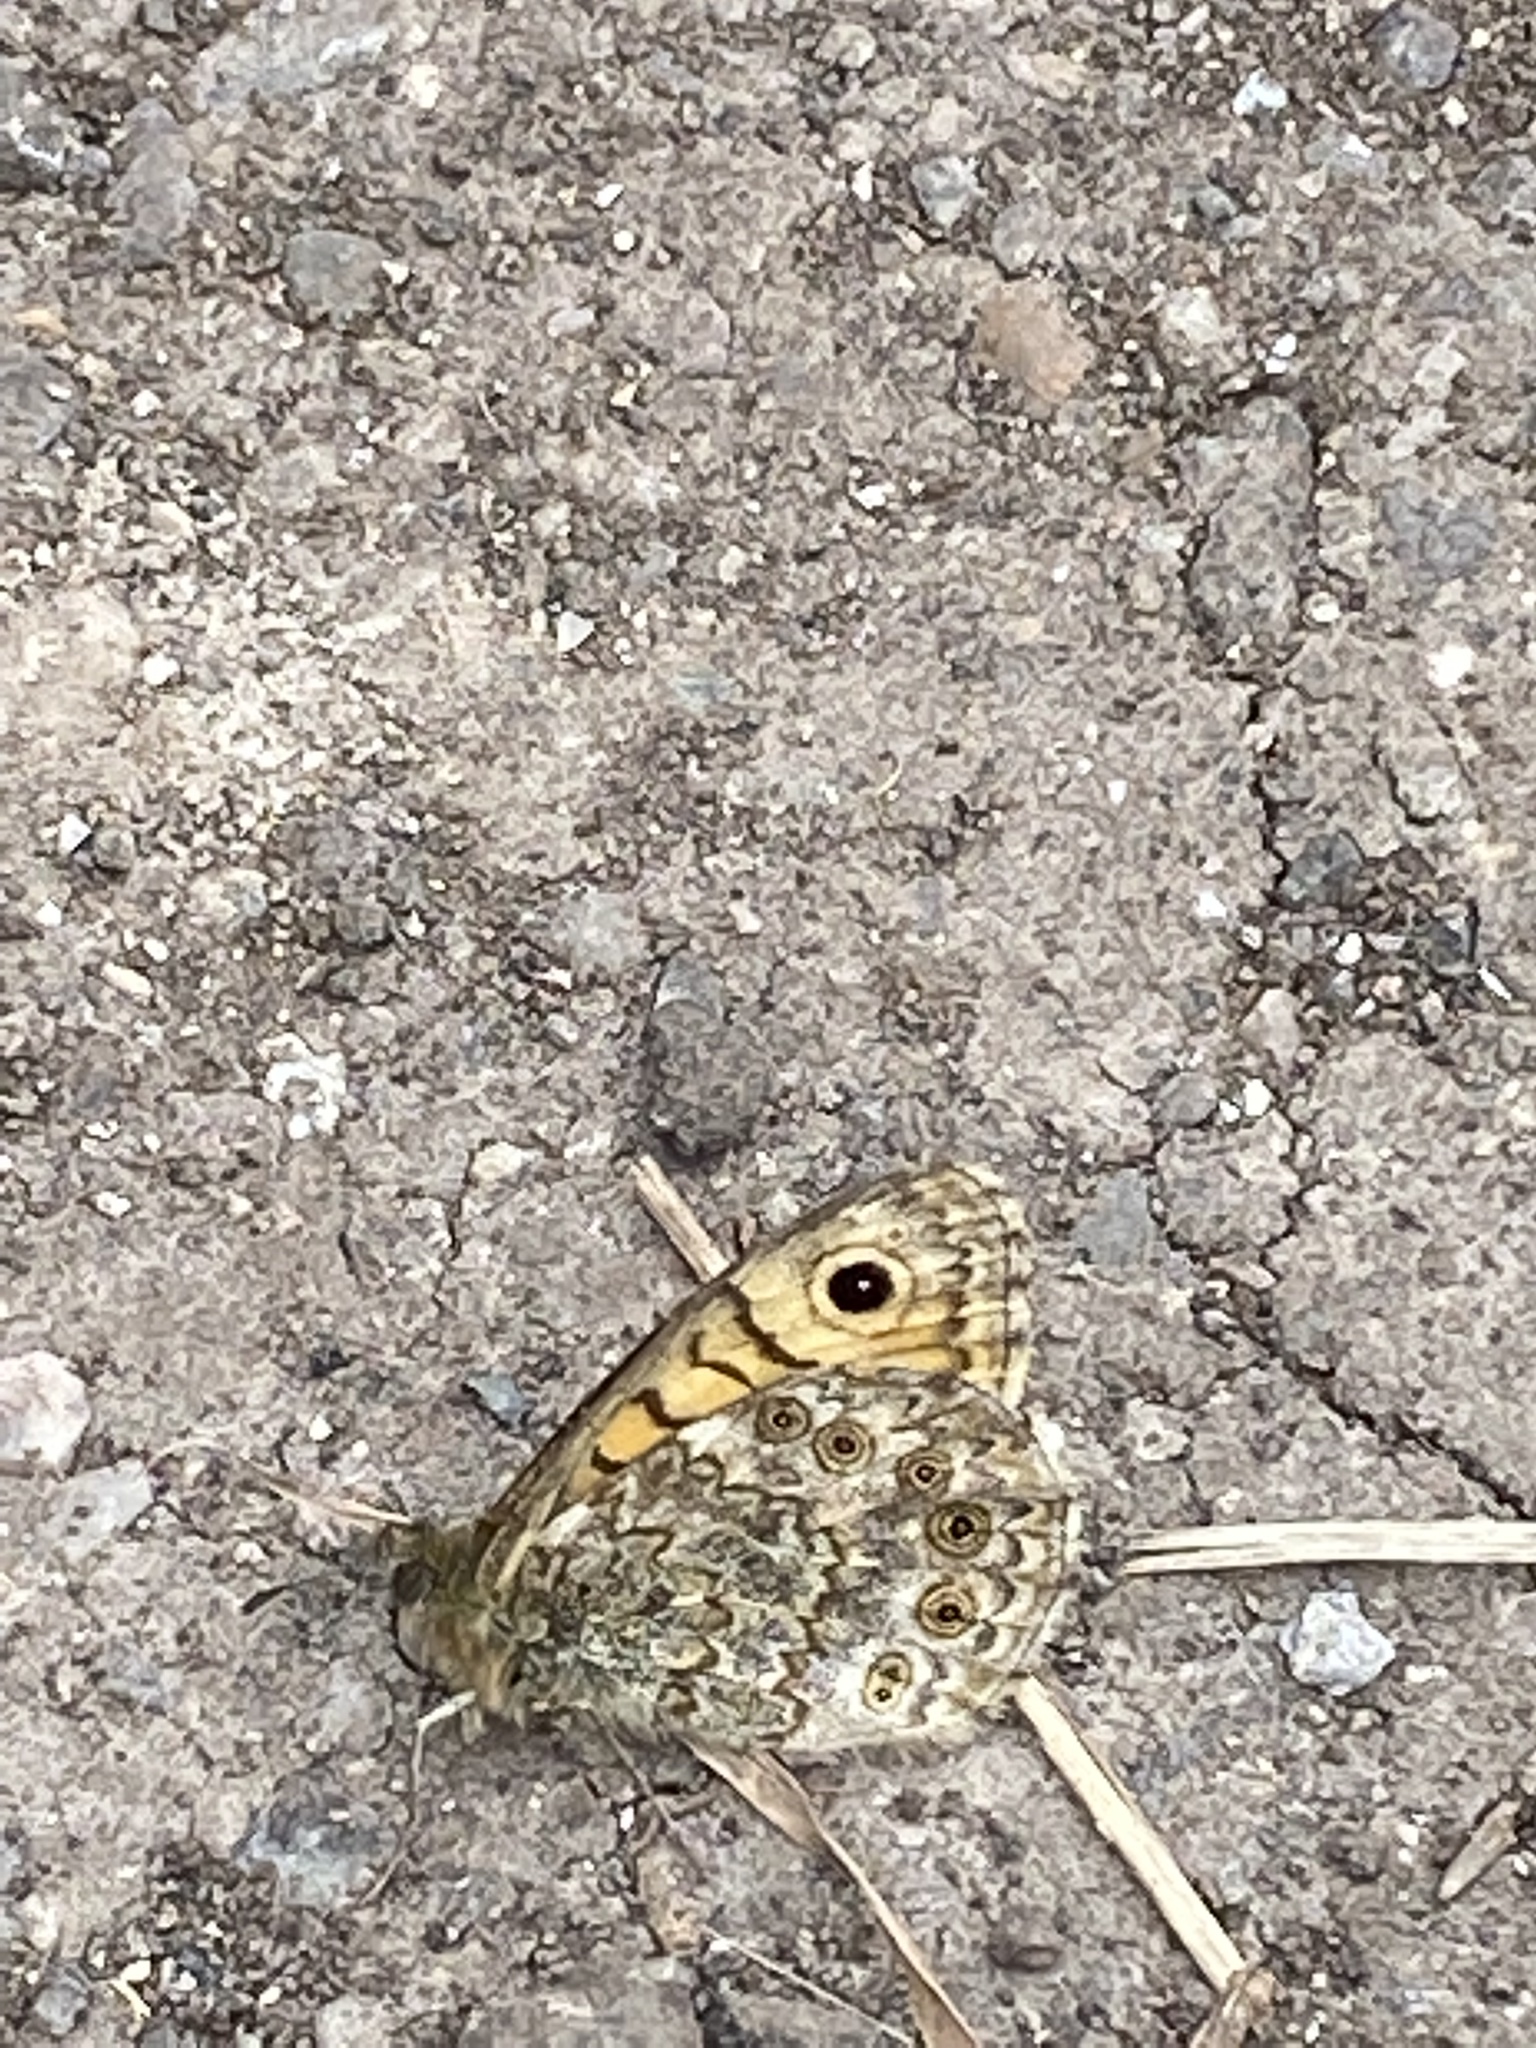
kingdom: Animalia
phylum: Arthropoda
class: Insecta
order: Lepidoptera
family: Nymphalidae
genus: Pararge
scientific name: Pararge Lasiommata megera
